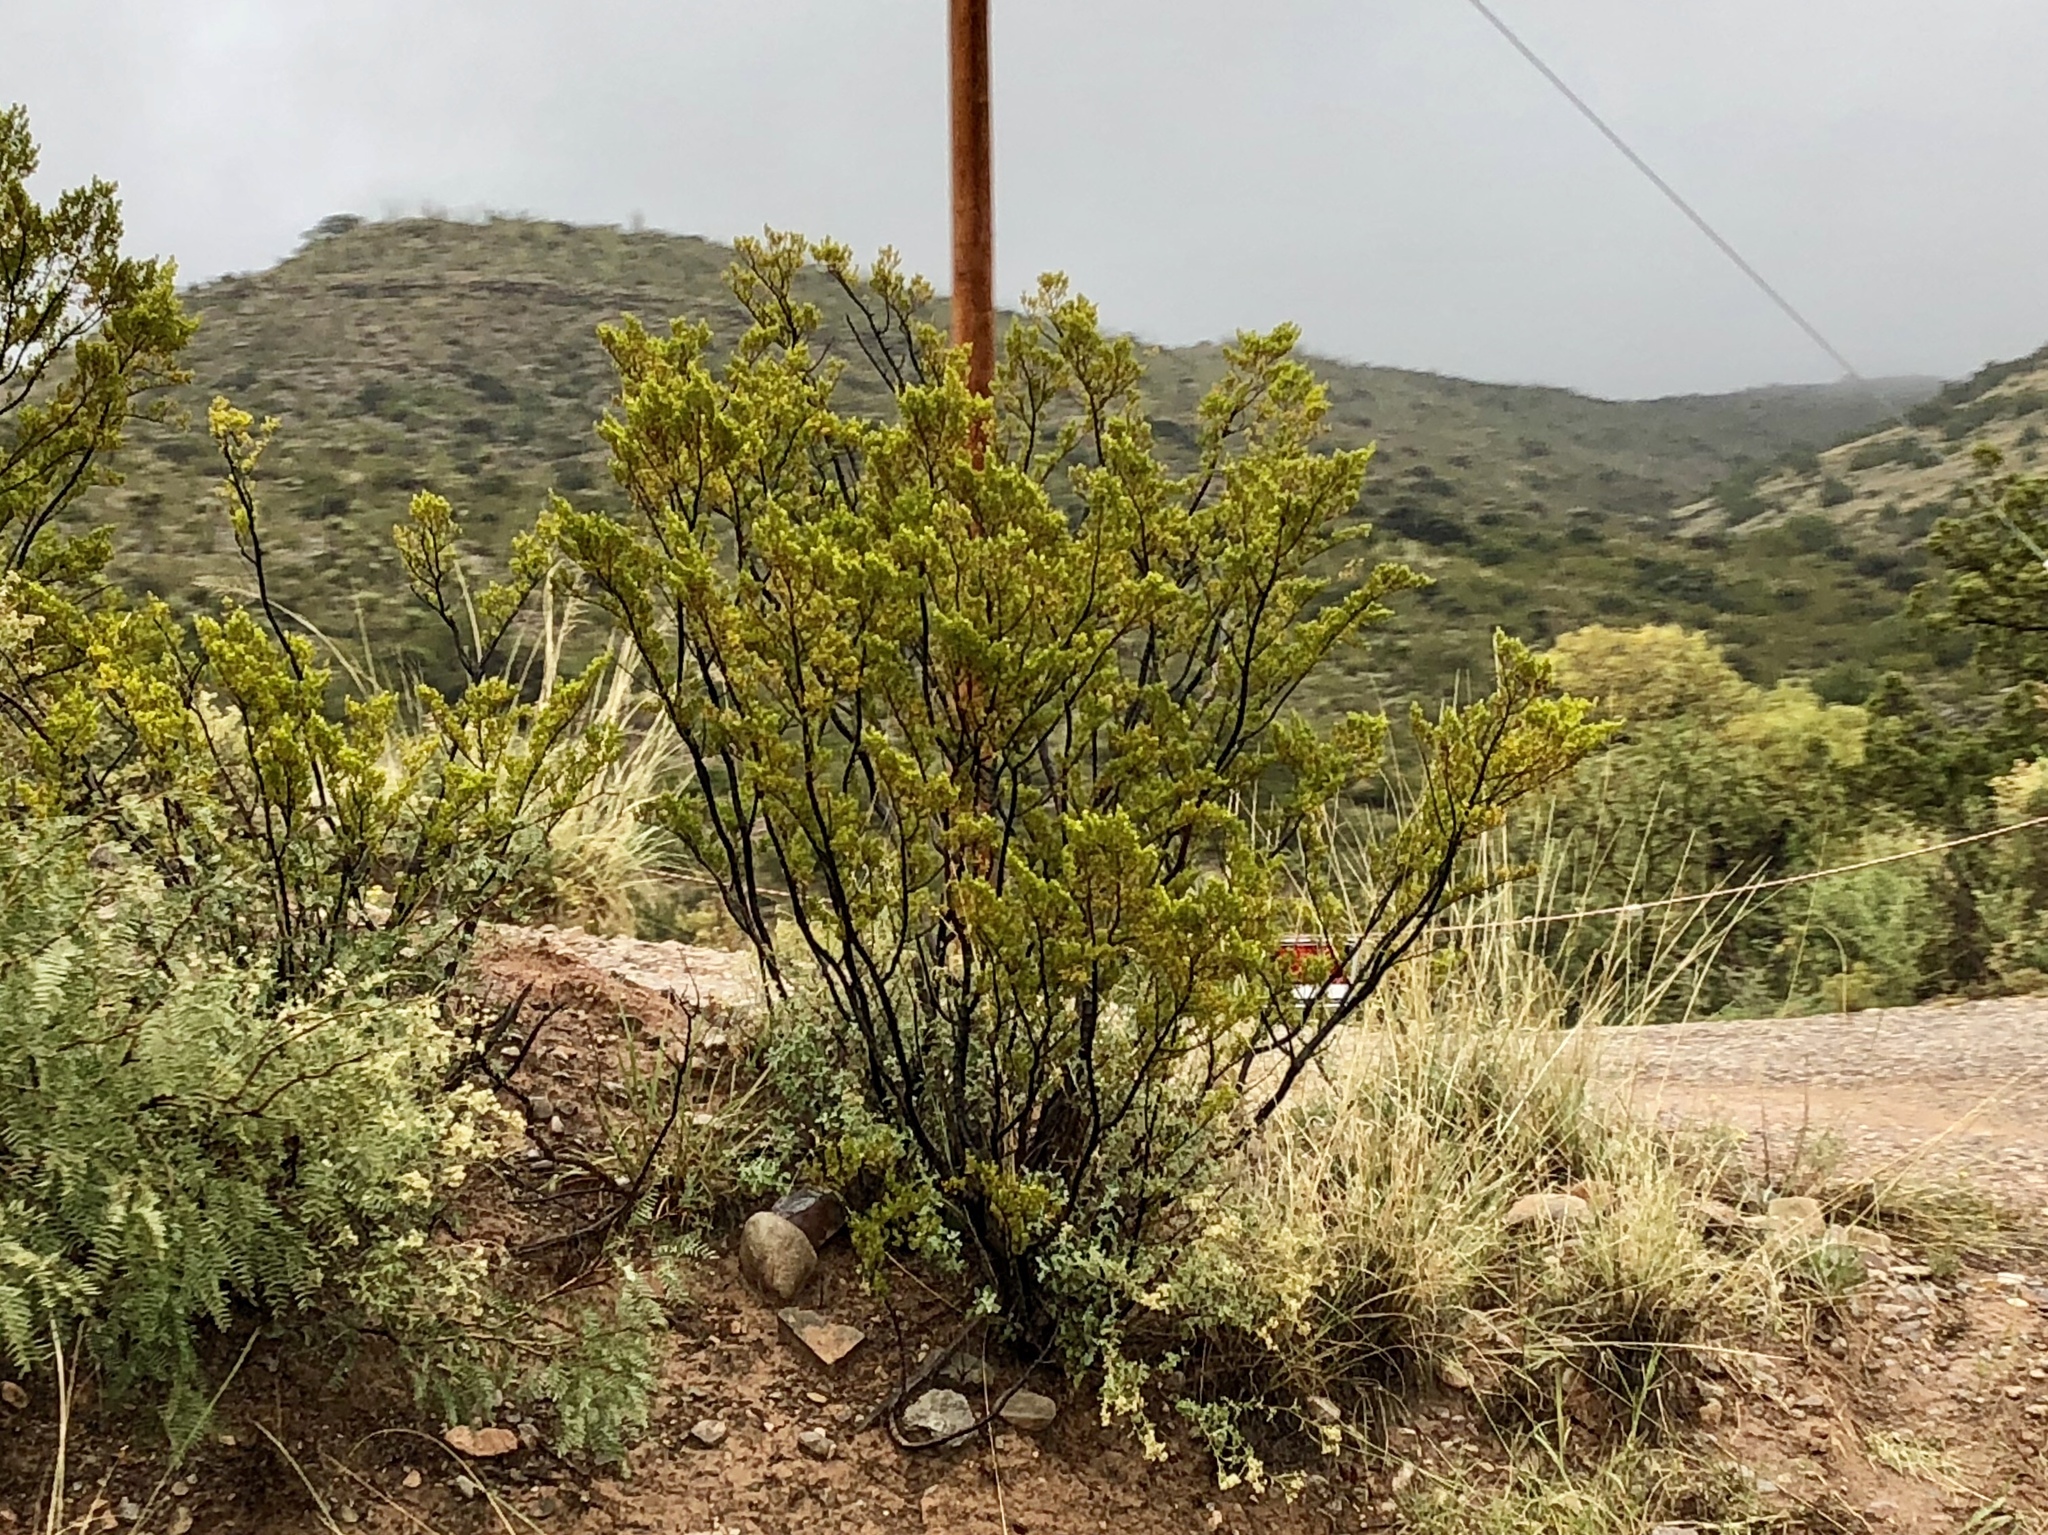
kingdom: Plantae
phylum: Tracheophyta
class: Magnoliopsida
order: Zygophyllales
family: Zygophyllaceae
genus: Larrea
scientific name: Larrea tridentata
